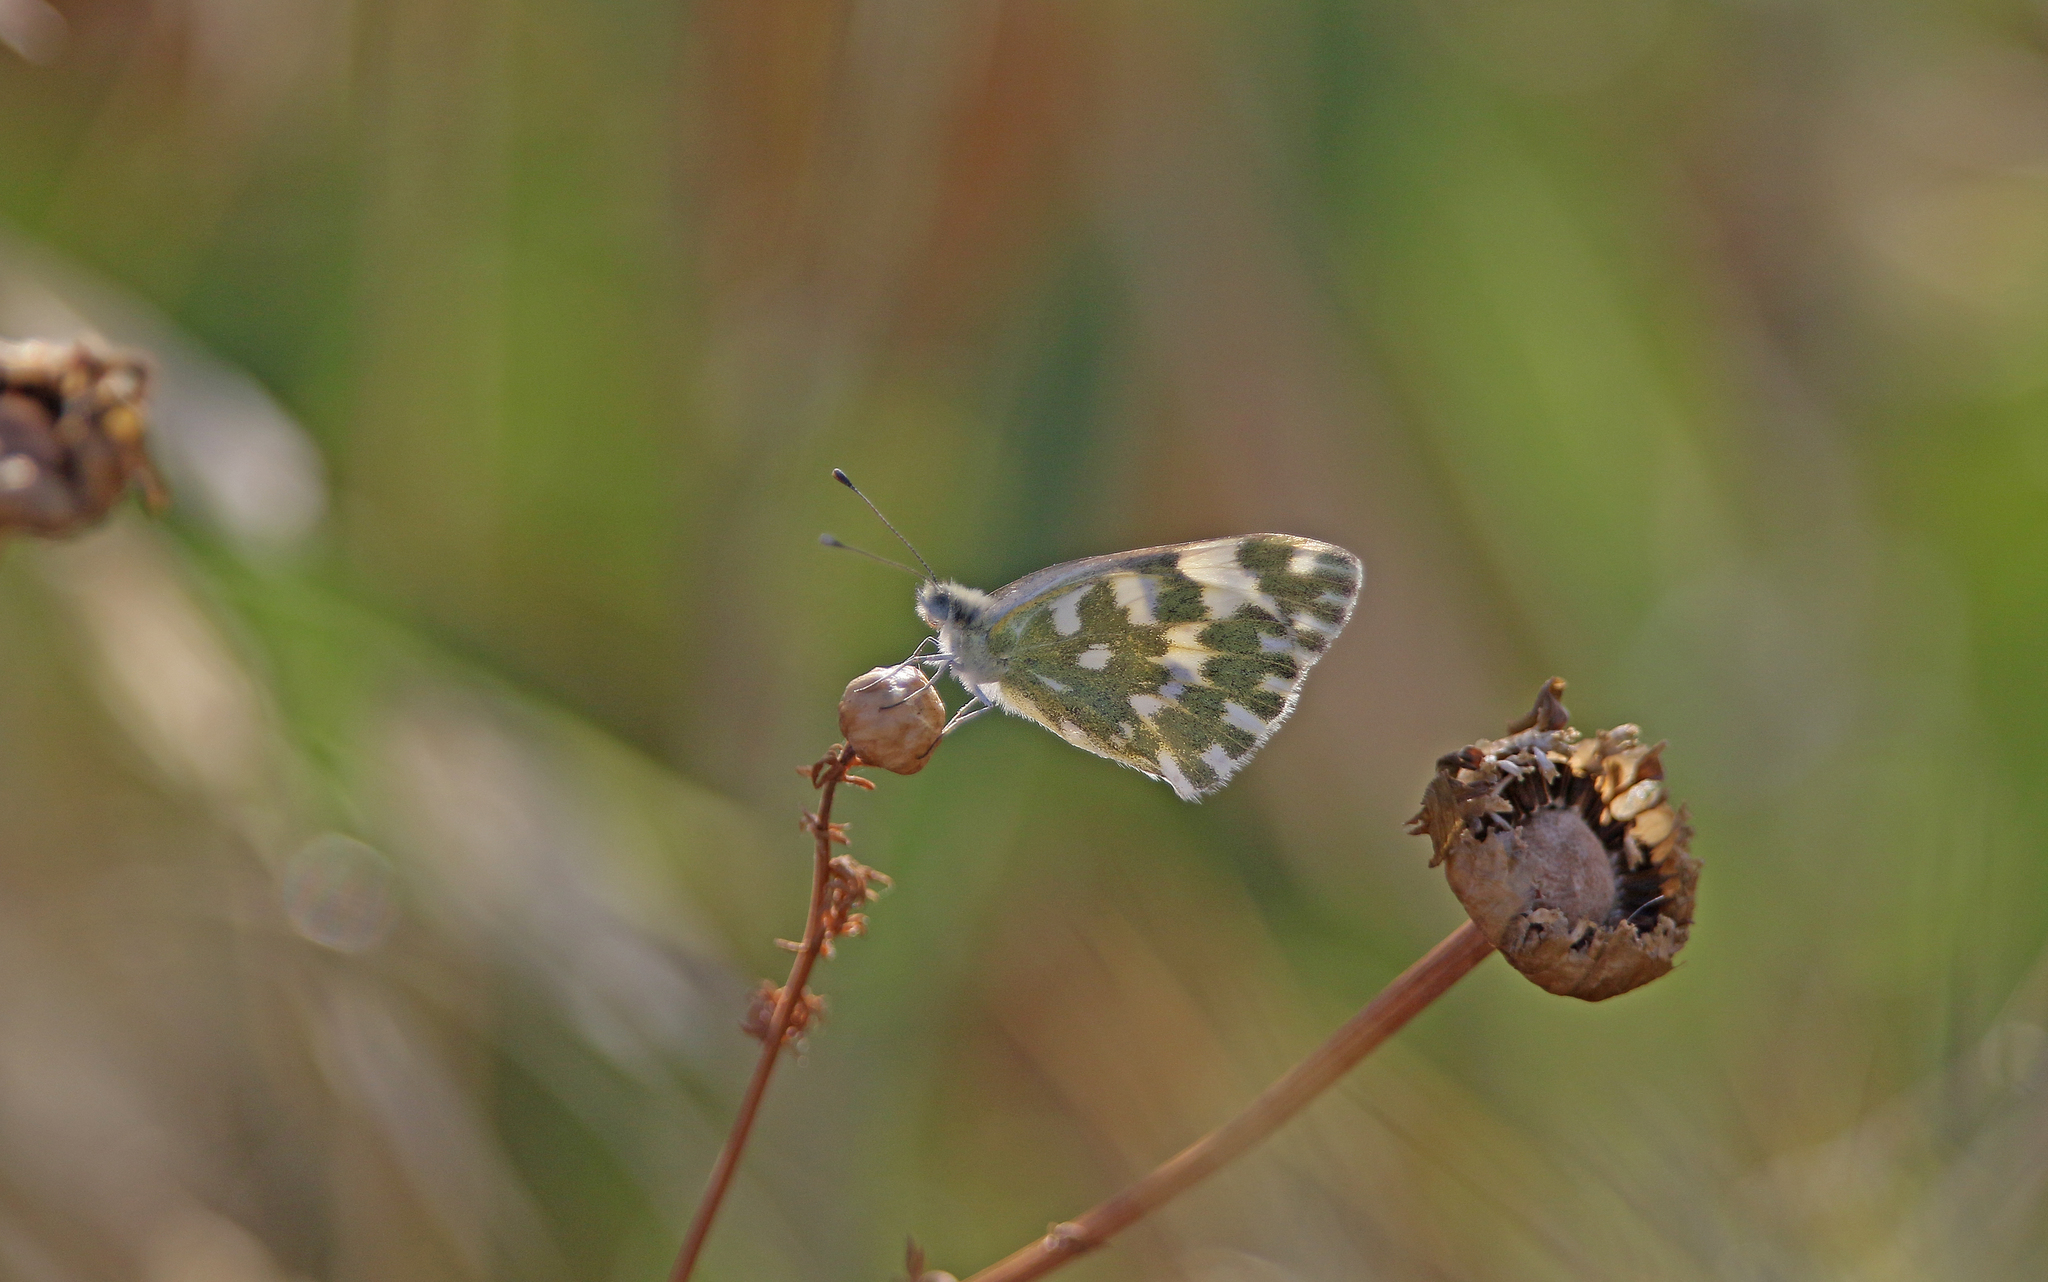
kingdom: Animalia
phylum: Arthropoda
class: Insecta
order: Lepidoptera
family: Pieridae
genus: Pontia
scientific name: Pontia edusa
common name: Eastern bath white
